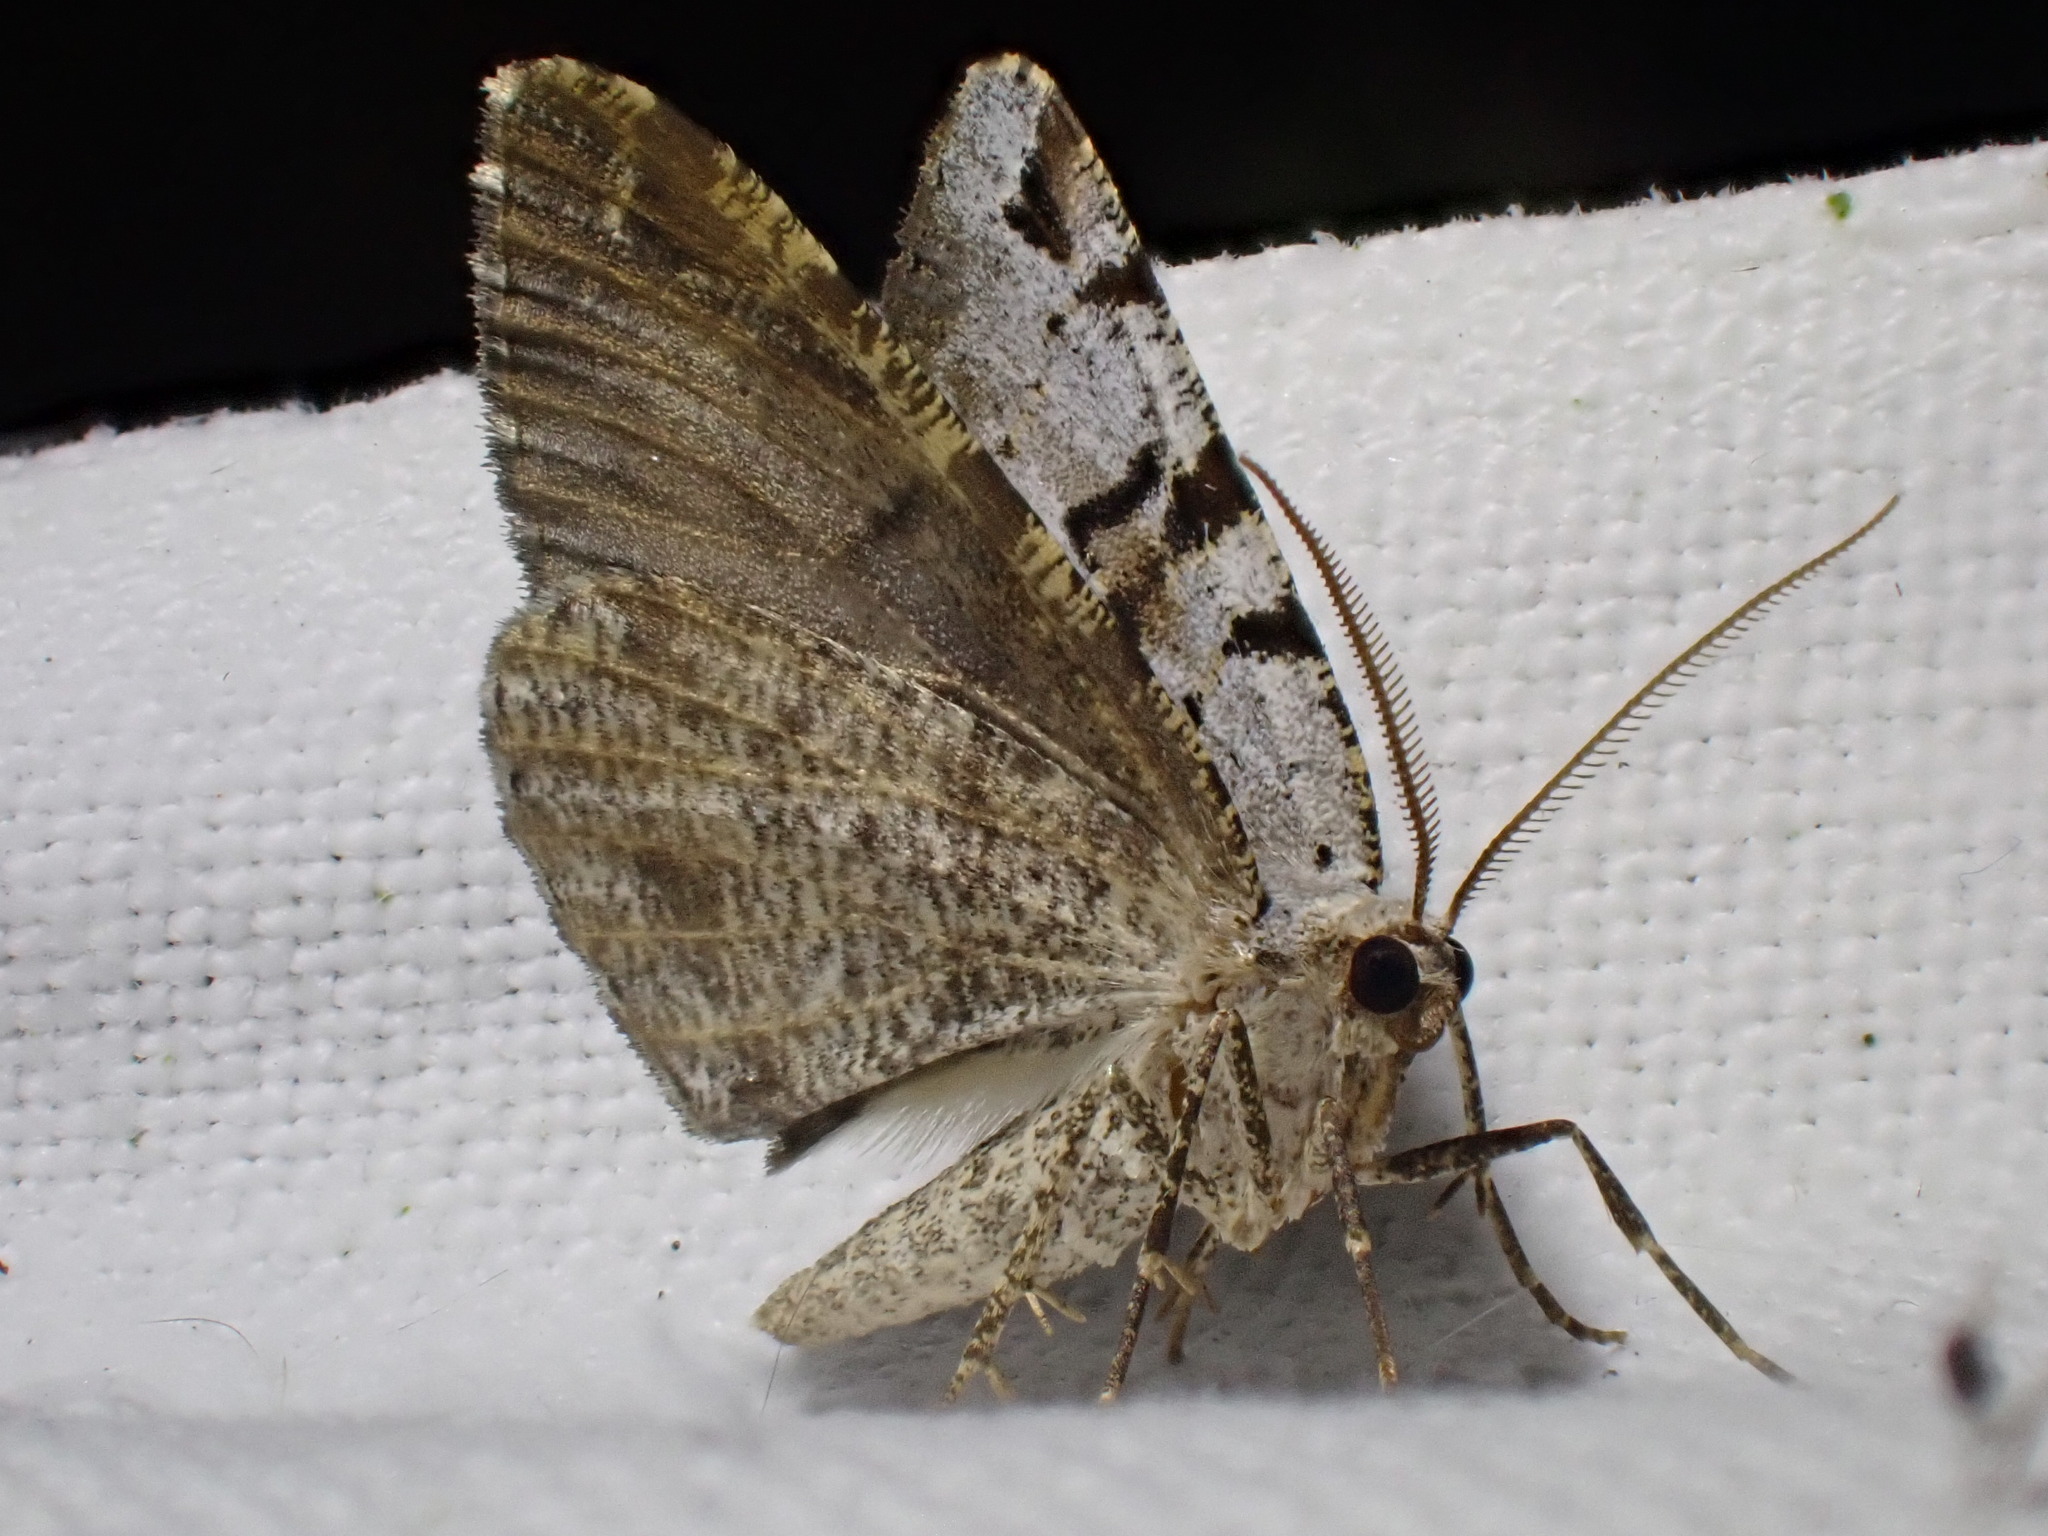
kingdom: Animalia
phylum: Arthropoda
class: Insecta
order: Lepidoptera
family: Geometridae
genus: Macaria
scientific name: Macaria wauaria
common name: V-moth
